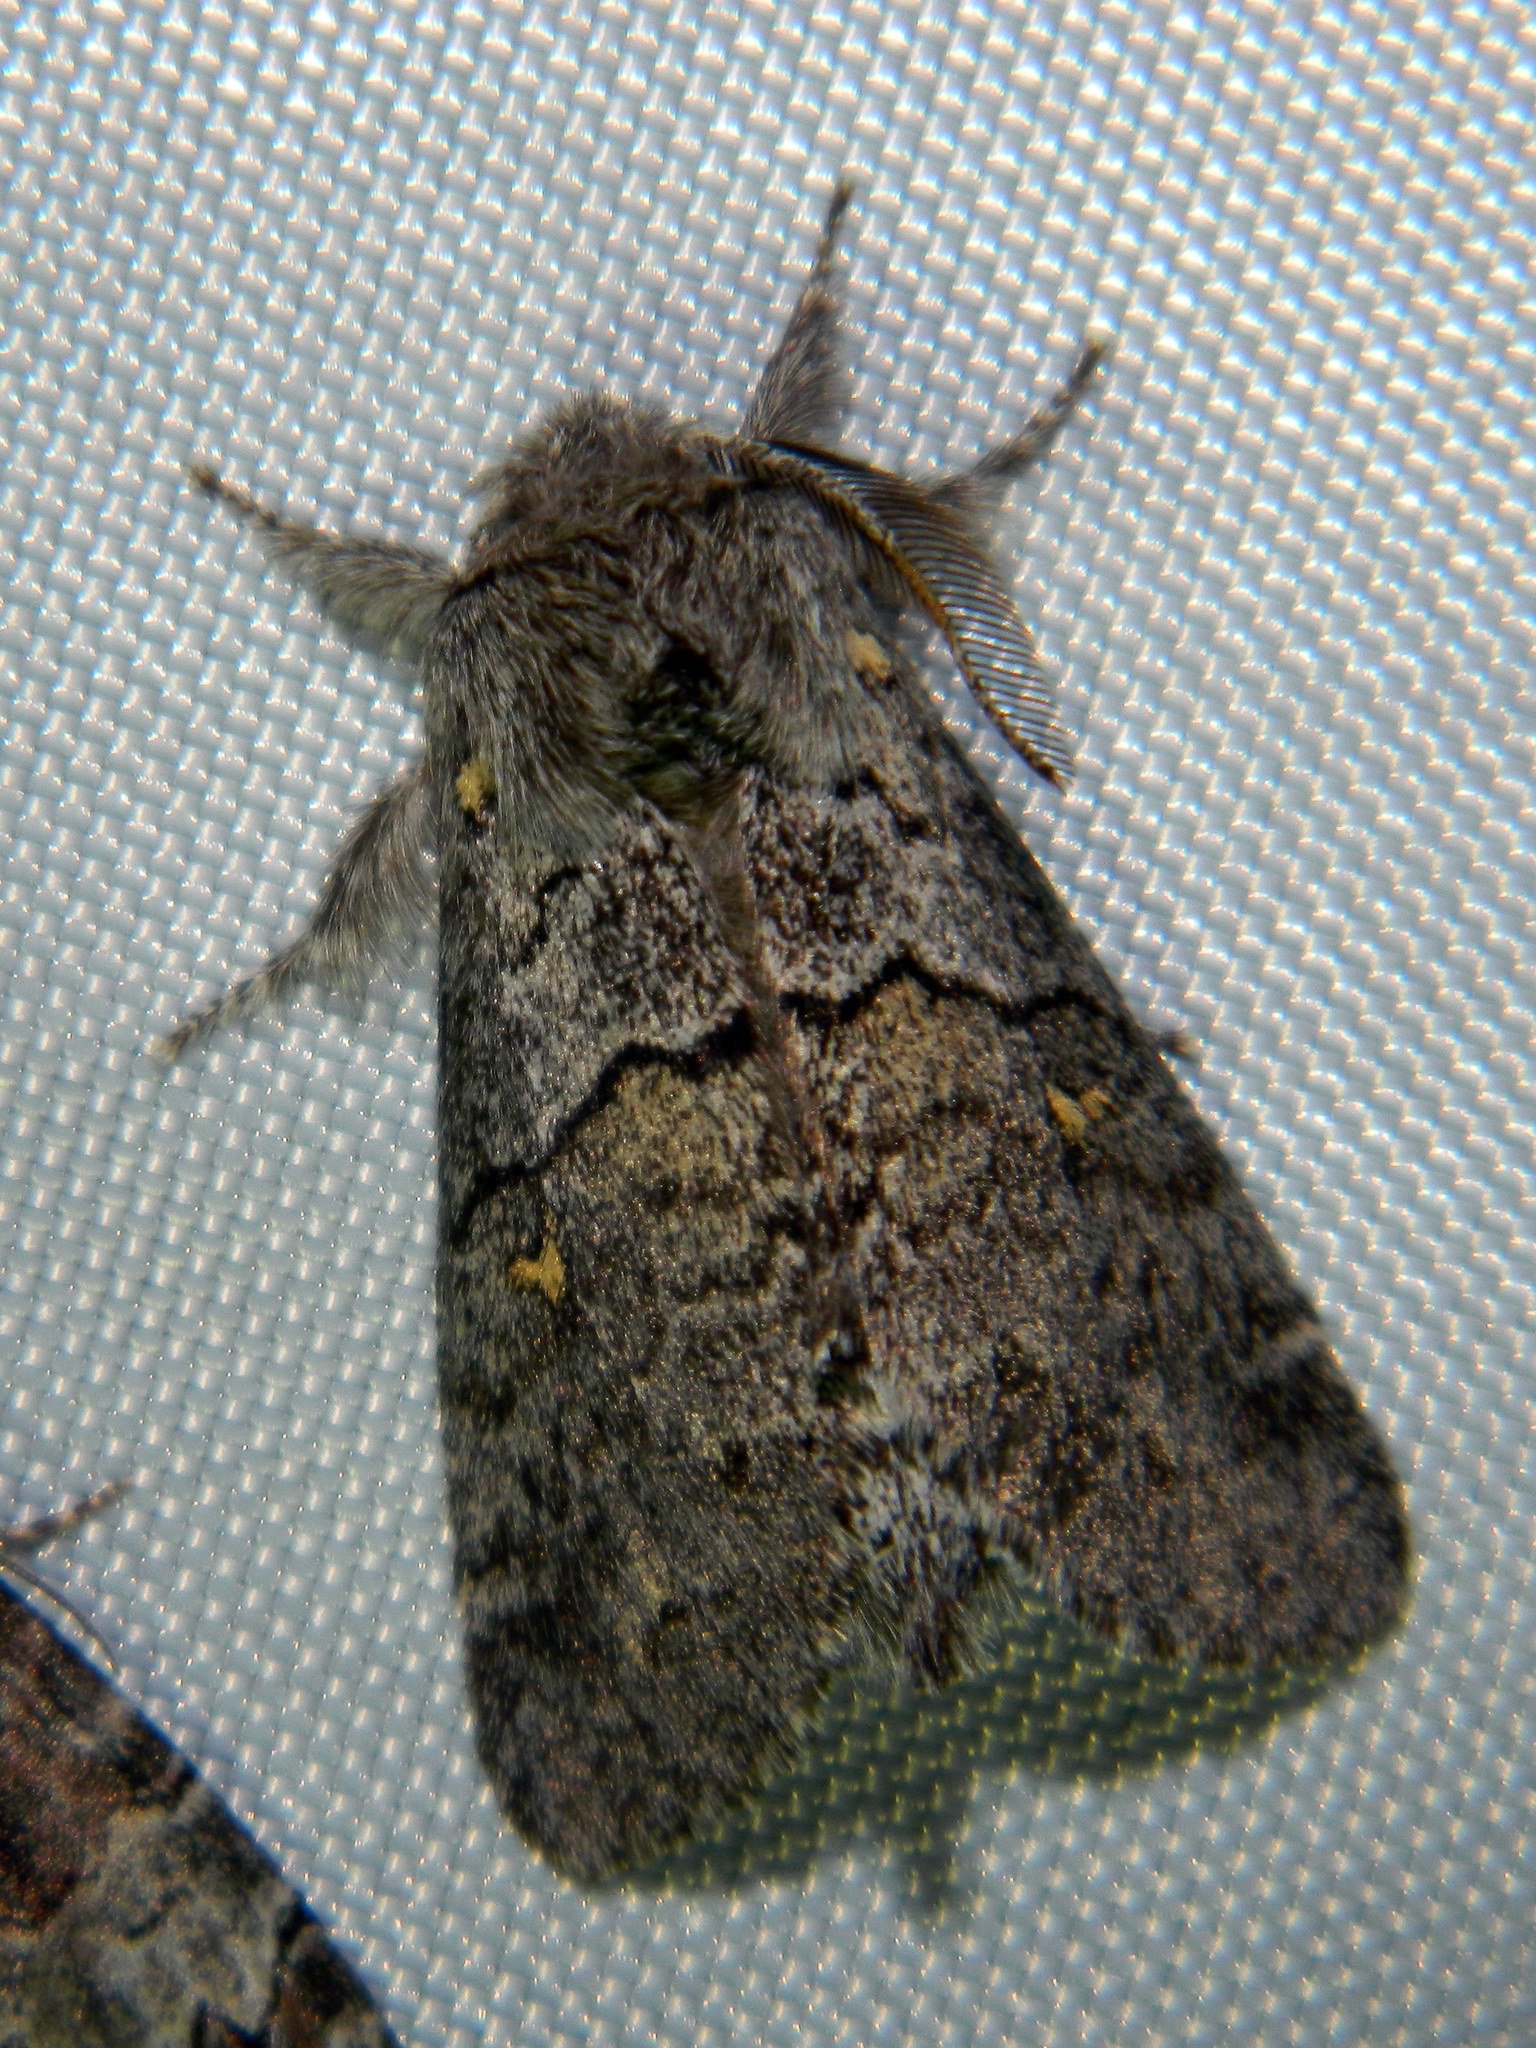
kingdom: Animalia
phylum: Arthropoda
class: Insecta
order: Lepidoptera
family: Notodontidae
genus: Gluphisia
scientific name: Gluphisia avimacula
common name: Four-spotted gluphisia moth
